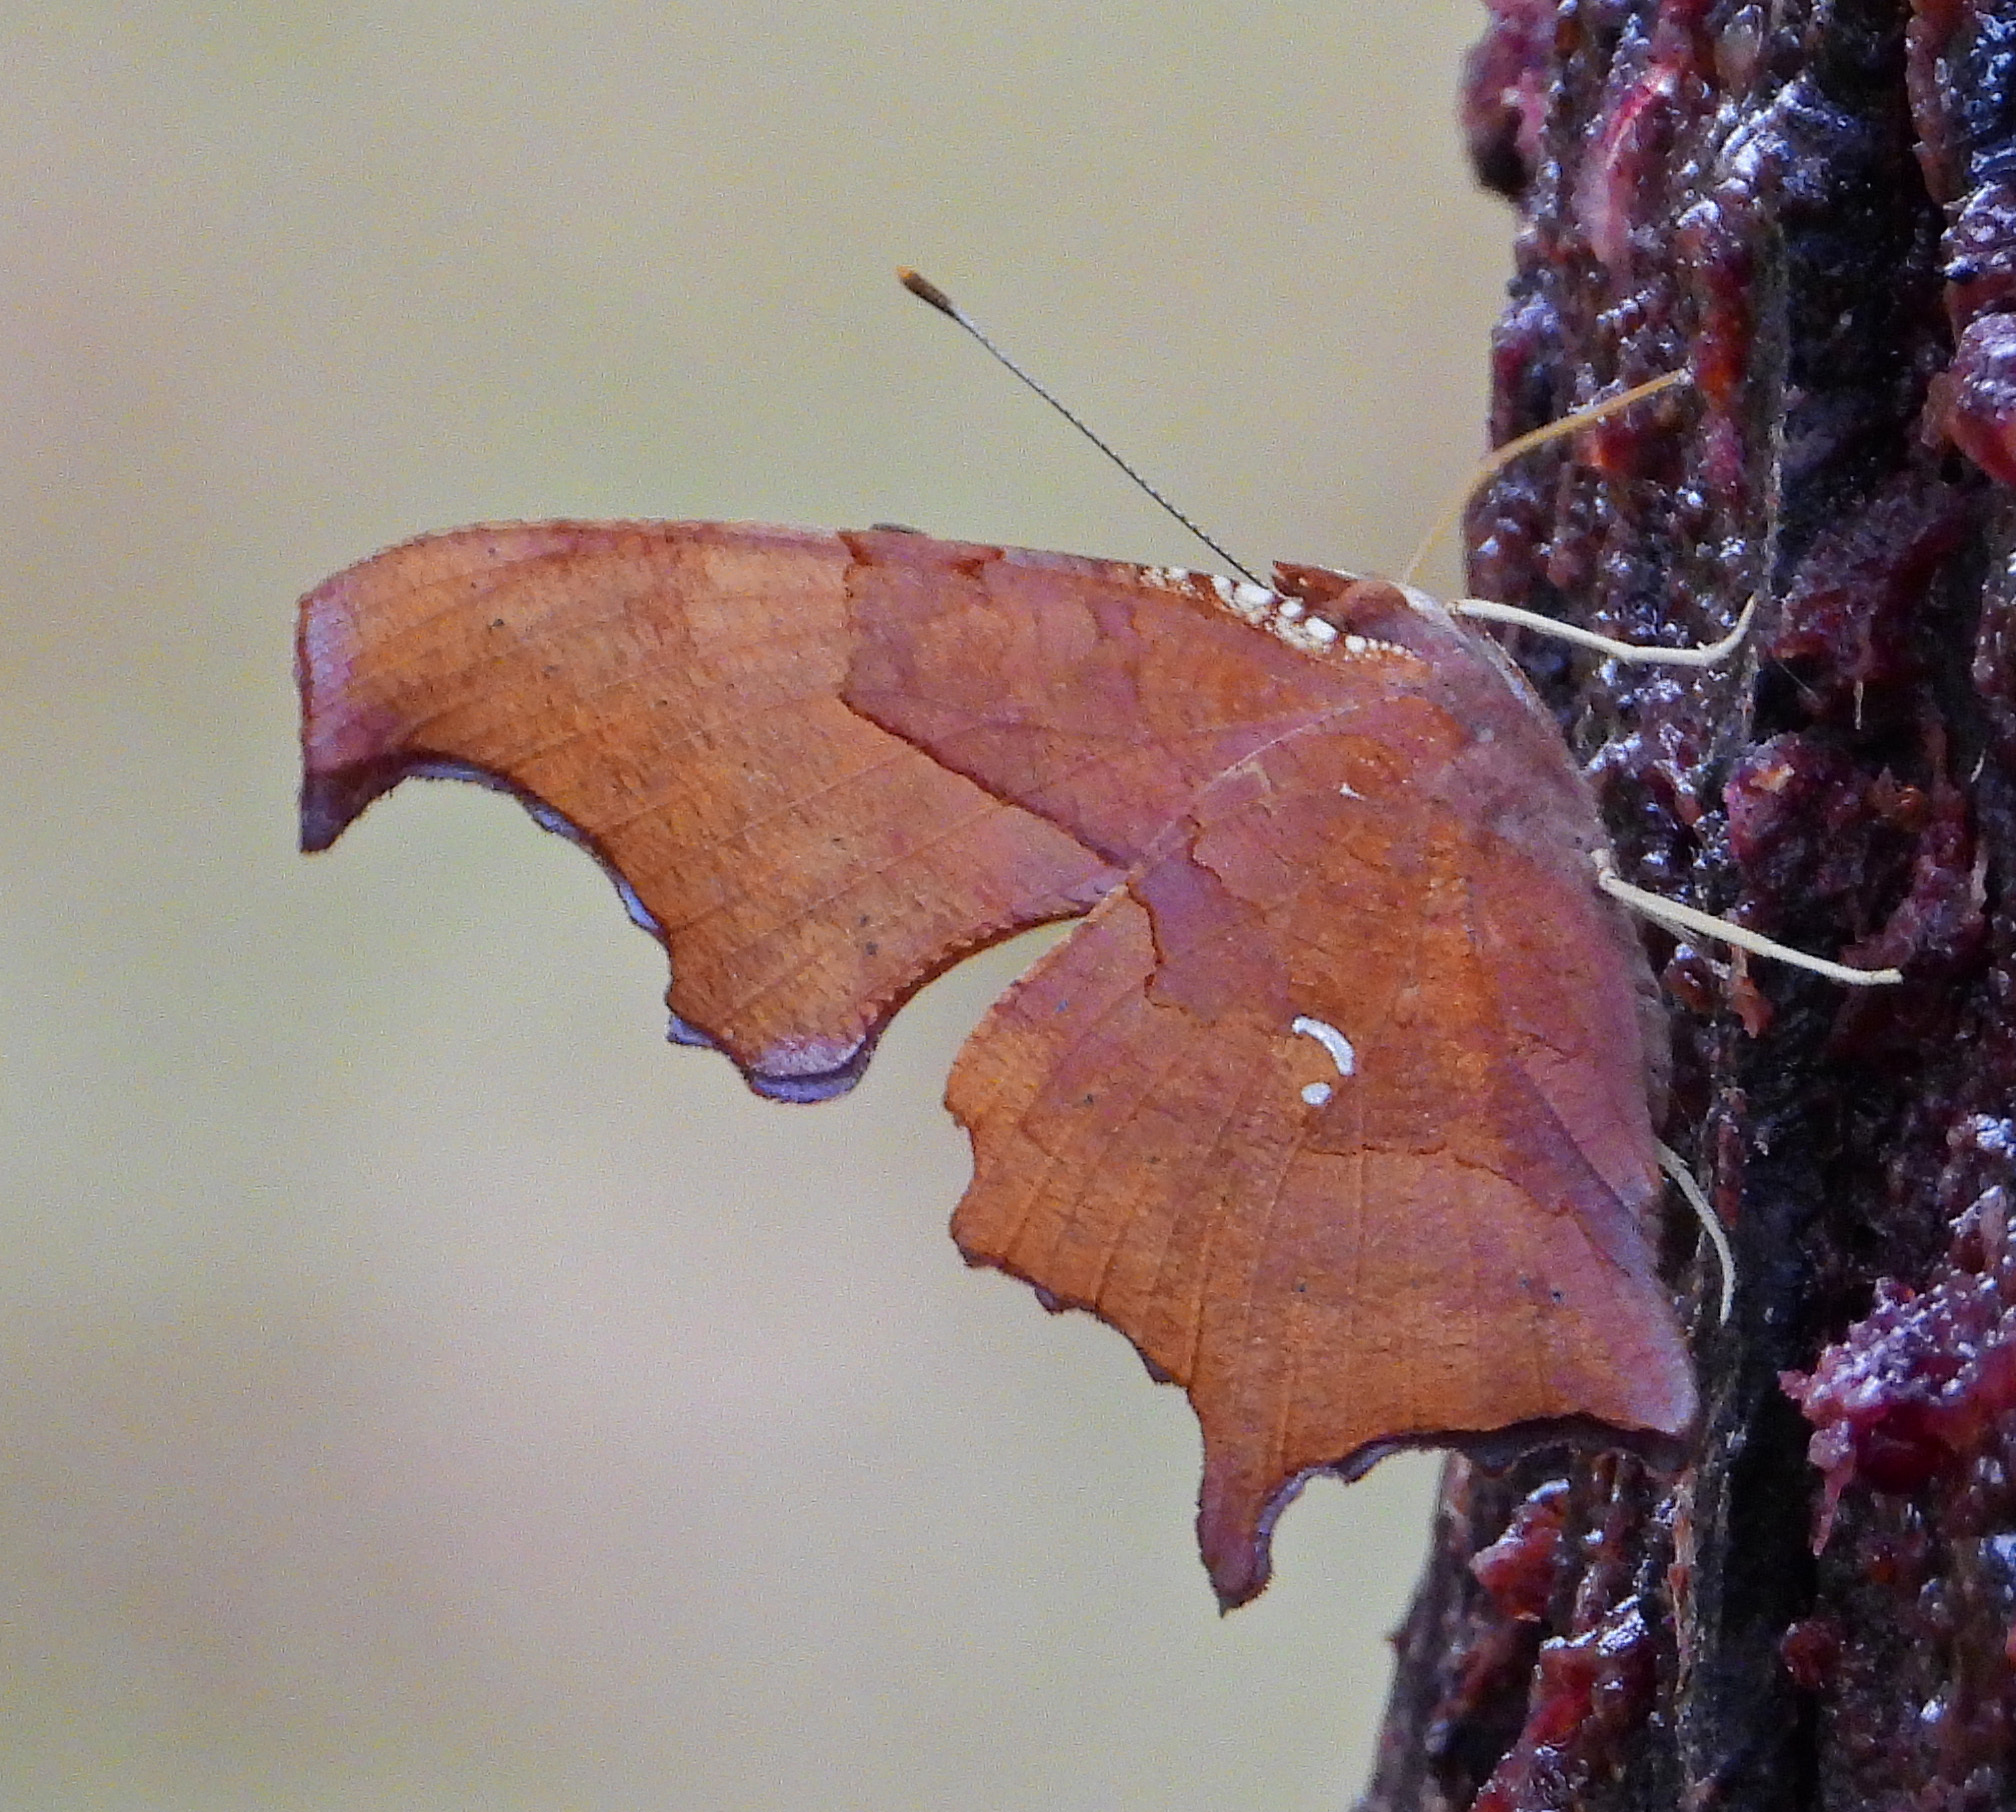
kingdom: Animalia
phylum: Arthropoda
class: Insecta
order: Lepidoptera
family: Nymphalidae
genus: Polygonia
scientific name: Polygonia interrogationis
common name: Question mark
